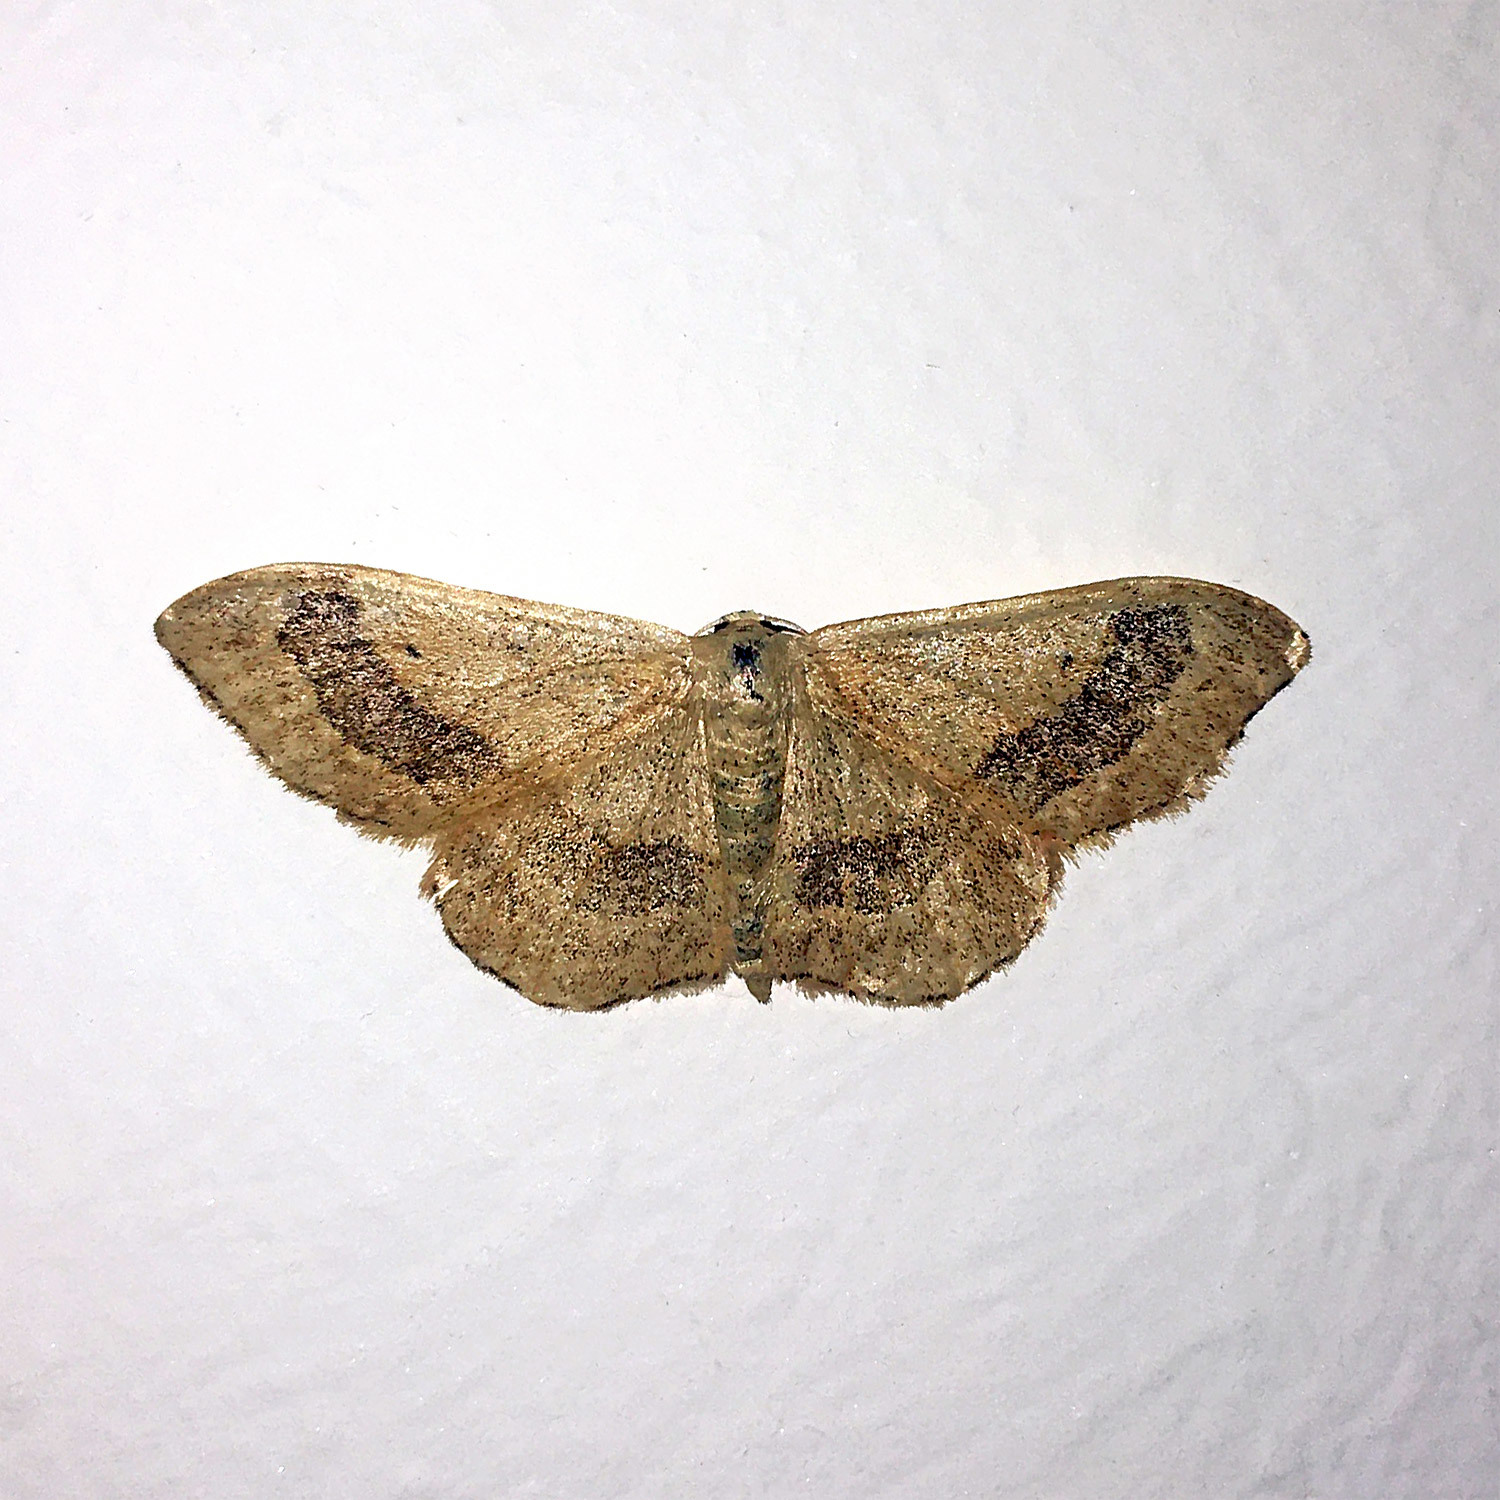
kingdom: Animalia
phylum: Arthropoda
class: Insecta
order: Lepidoptera
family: Geometridae
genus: Idaea
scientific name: Idaea aversata
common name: Riband wave
